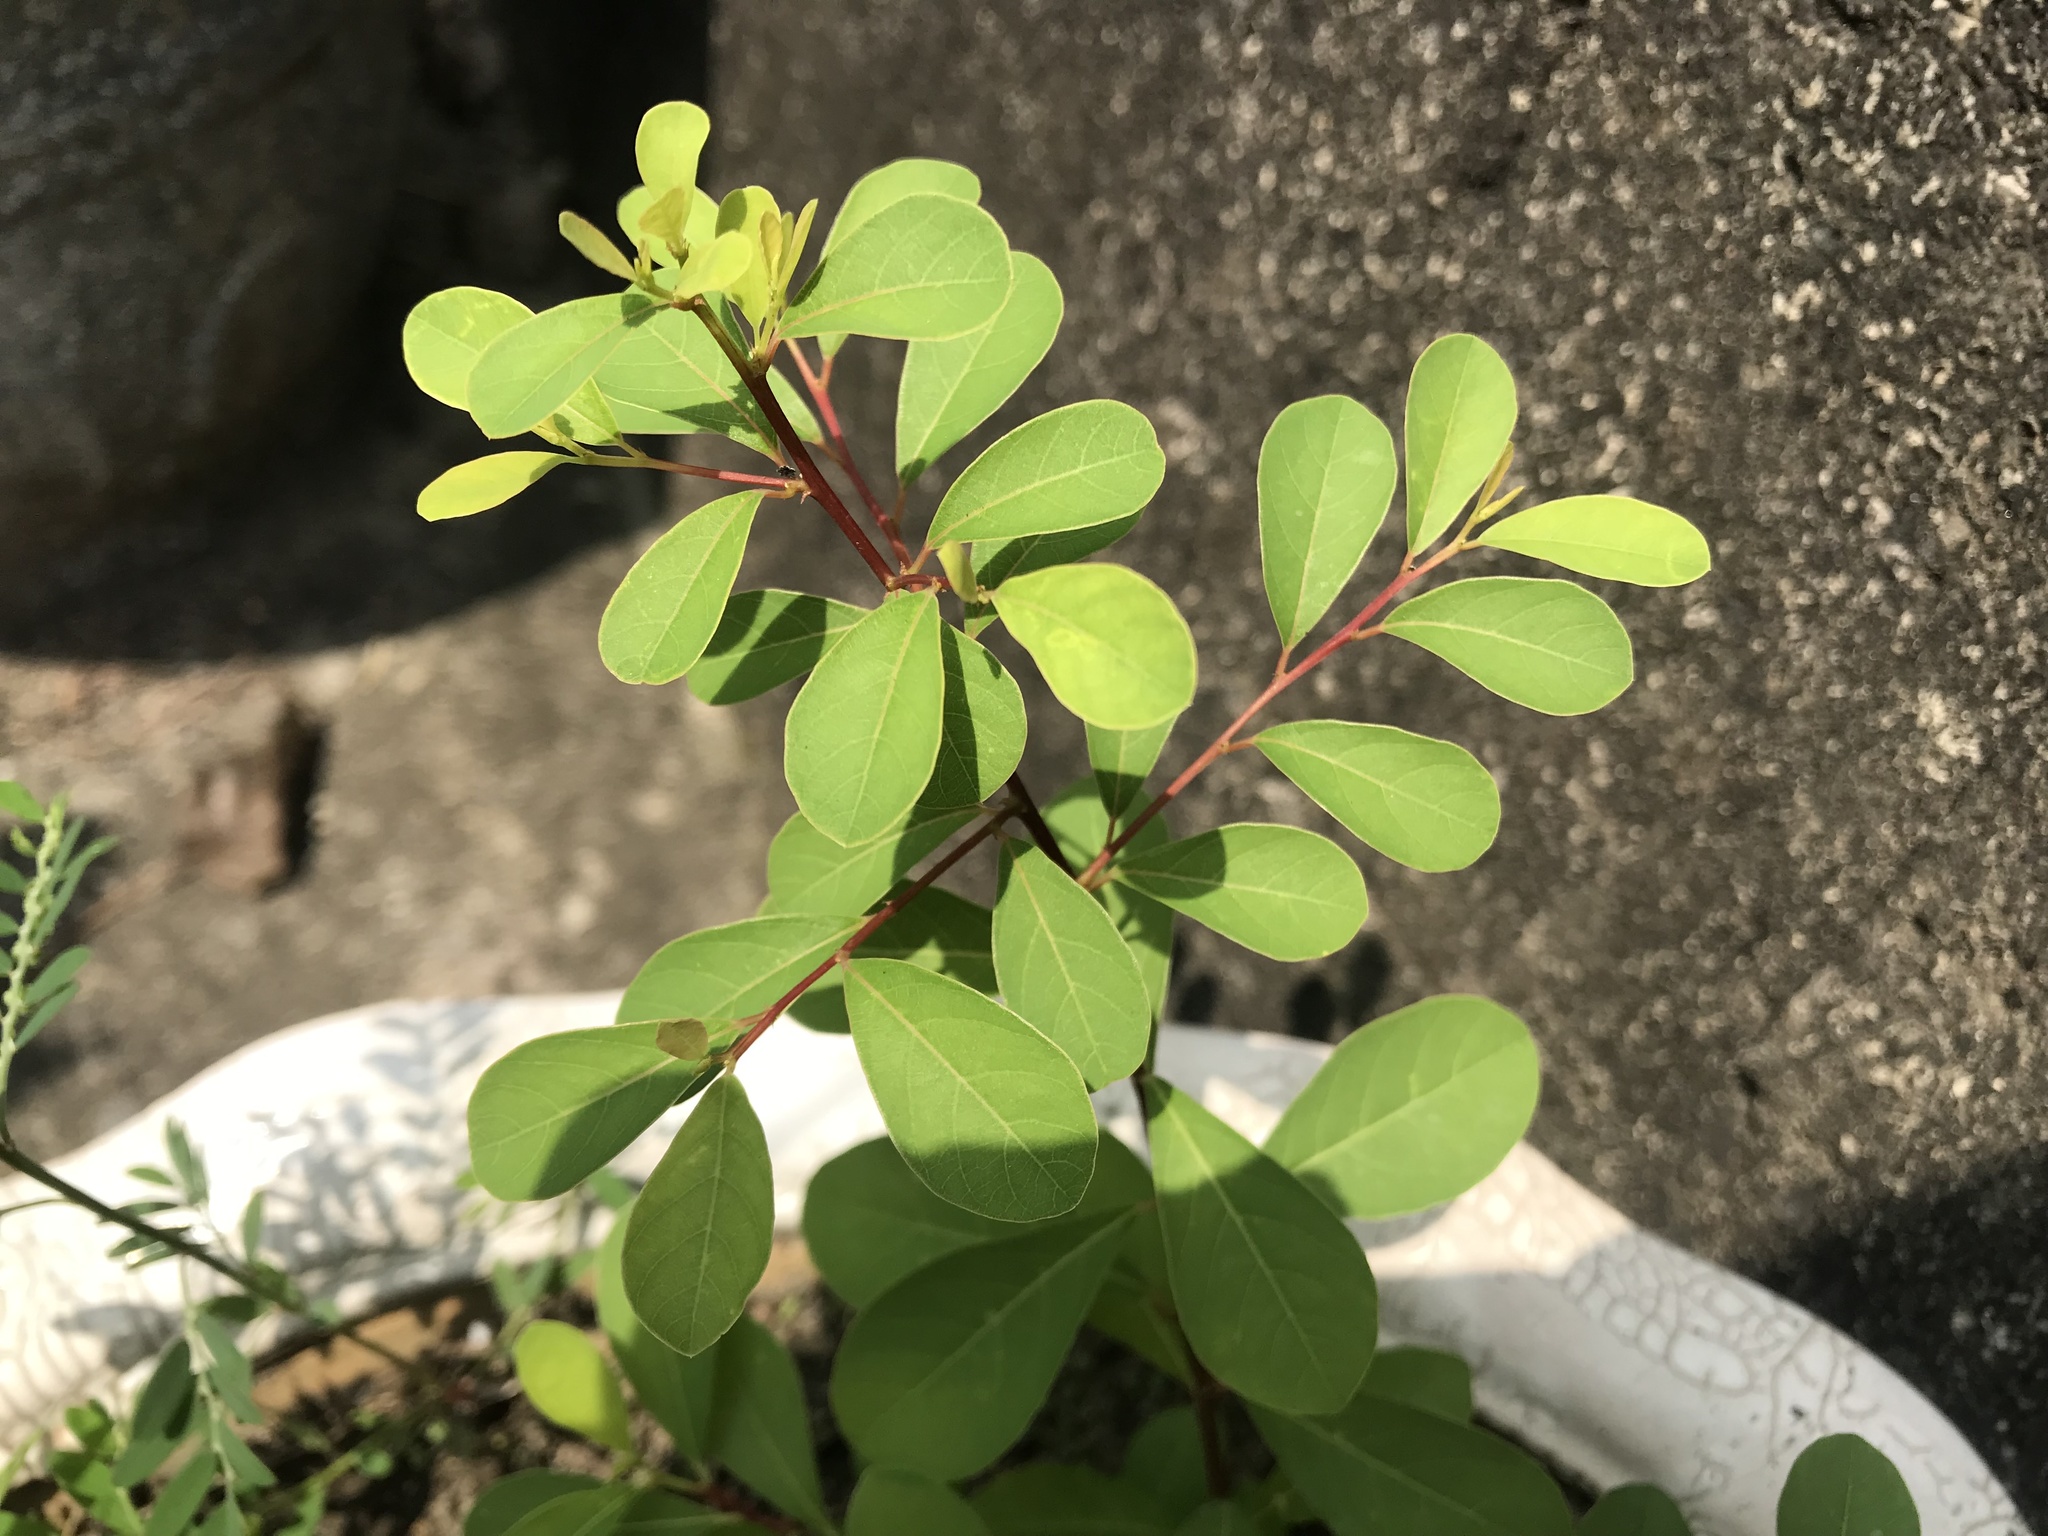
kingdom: Plantae
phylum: Tracheophyta
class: Magnoliopsida
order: Malpighiales
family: Phyllanthaceae
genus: Flueggea
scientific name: Flueggea virosa
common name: Common bushweed
